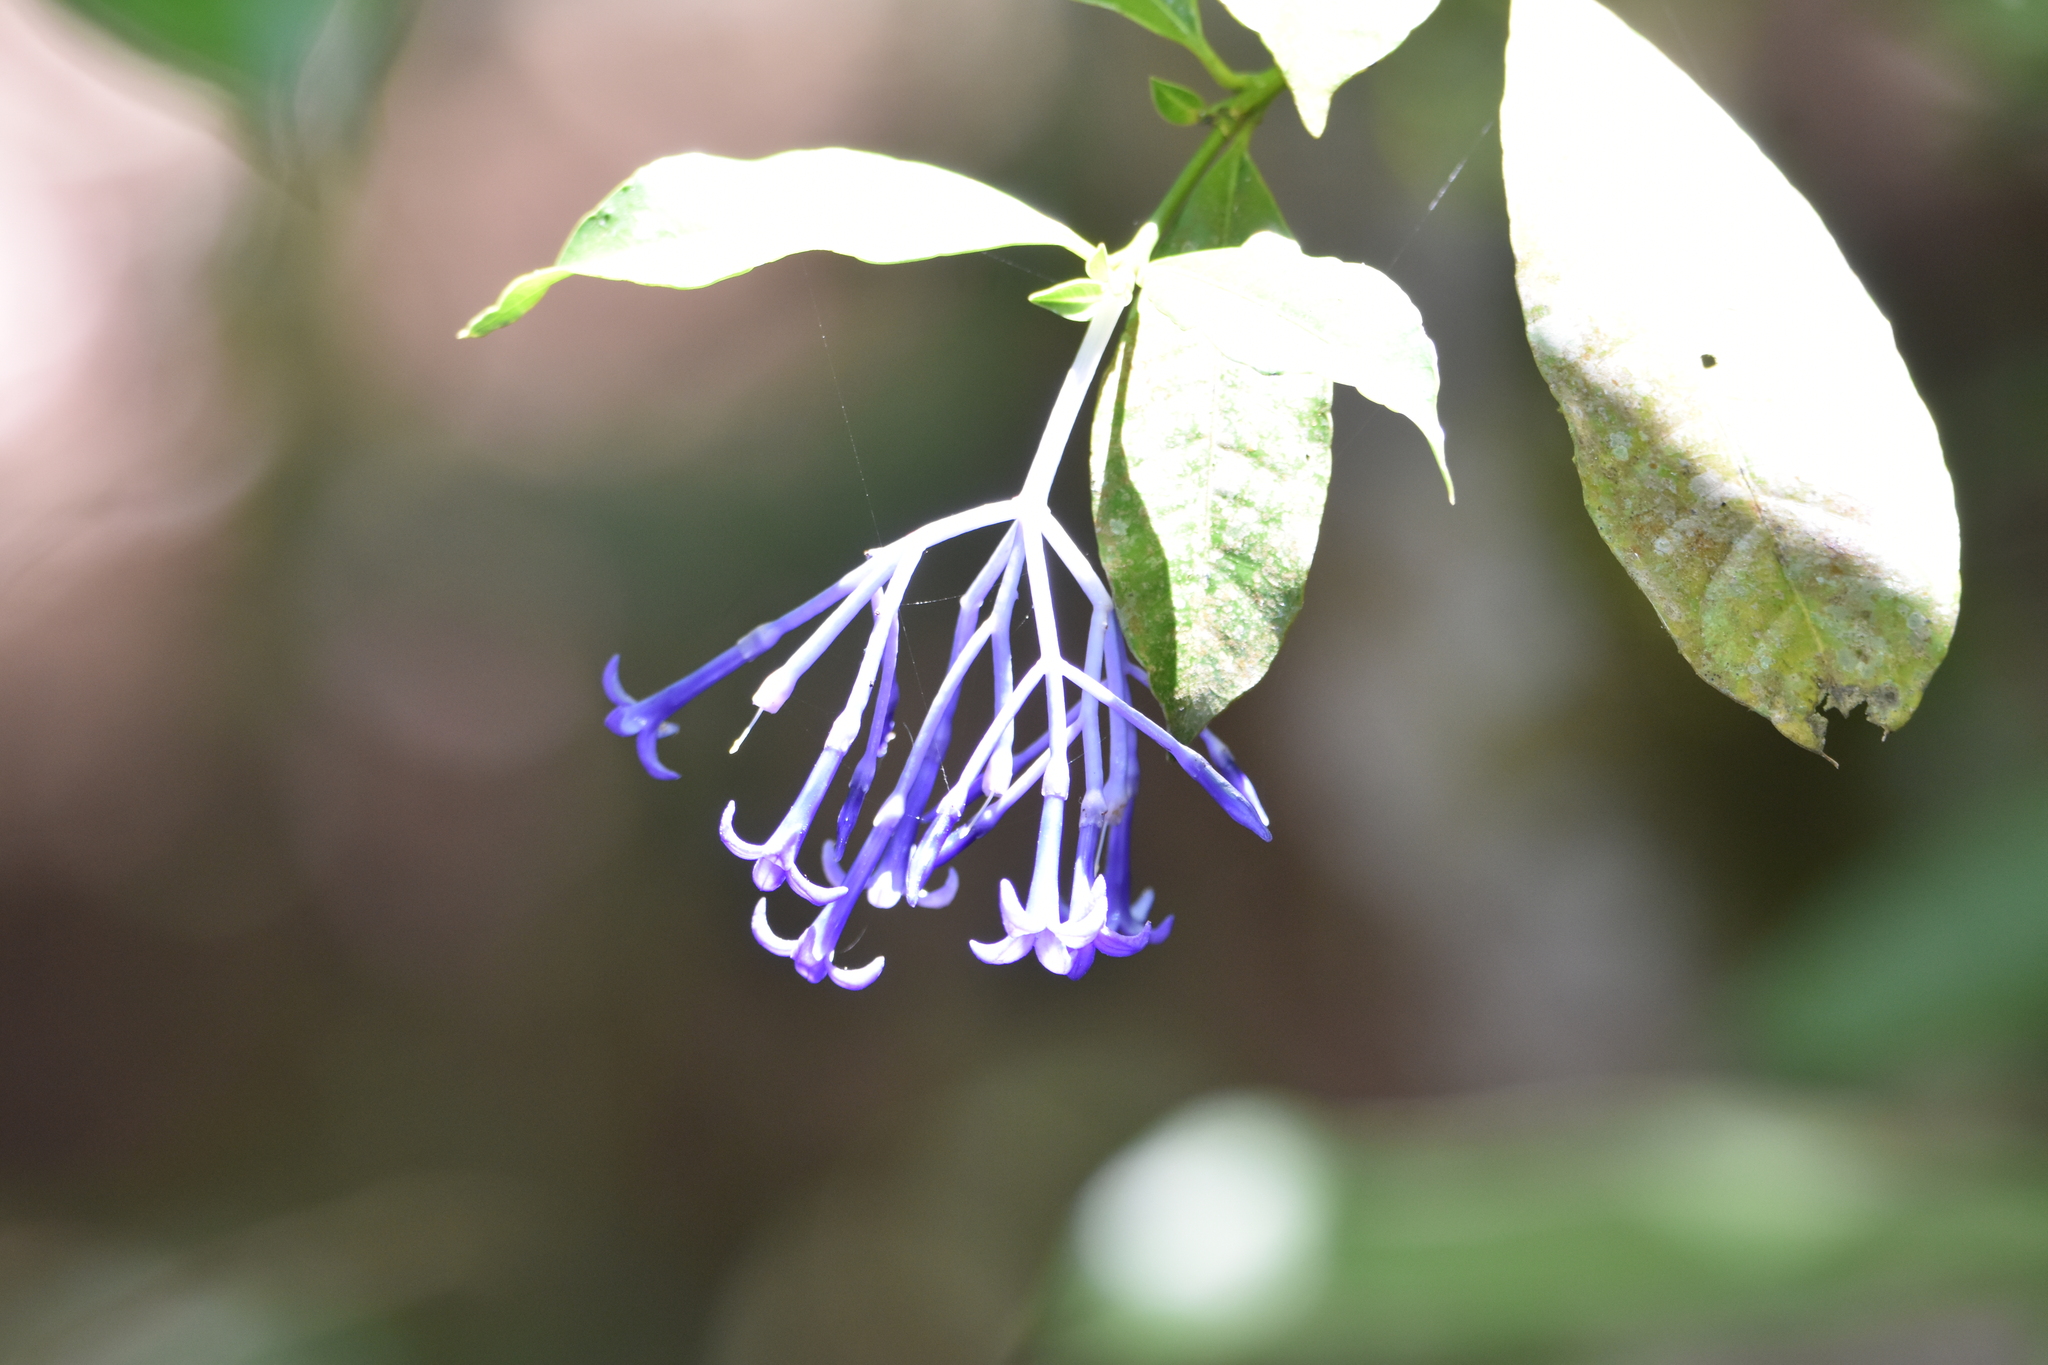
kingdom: Plantae
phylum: Tracheophyta
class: Magnoliopsida
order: Gentianales
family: Rubiaceae
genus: Faramea
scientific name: Faramea hyacinthina
